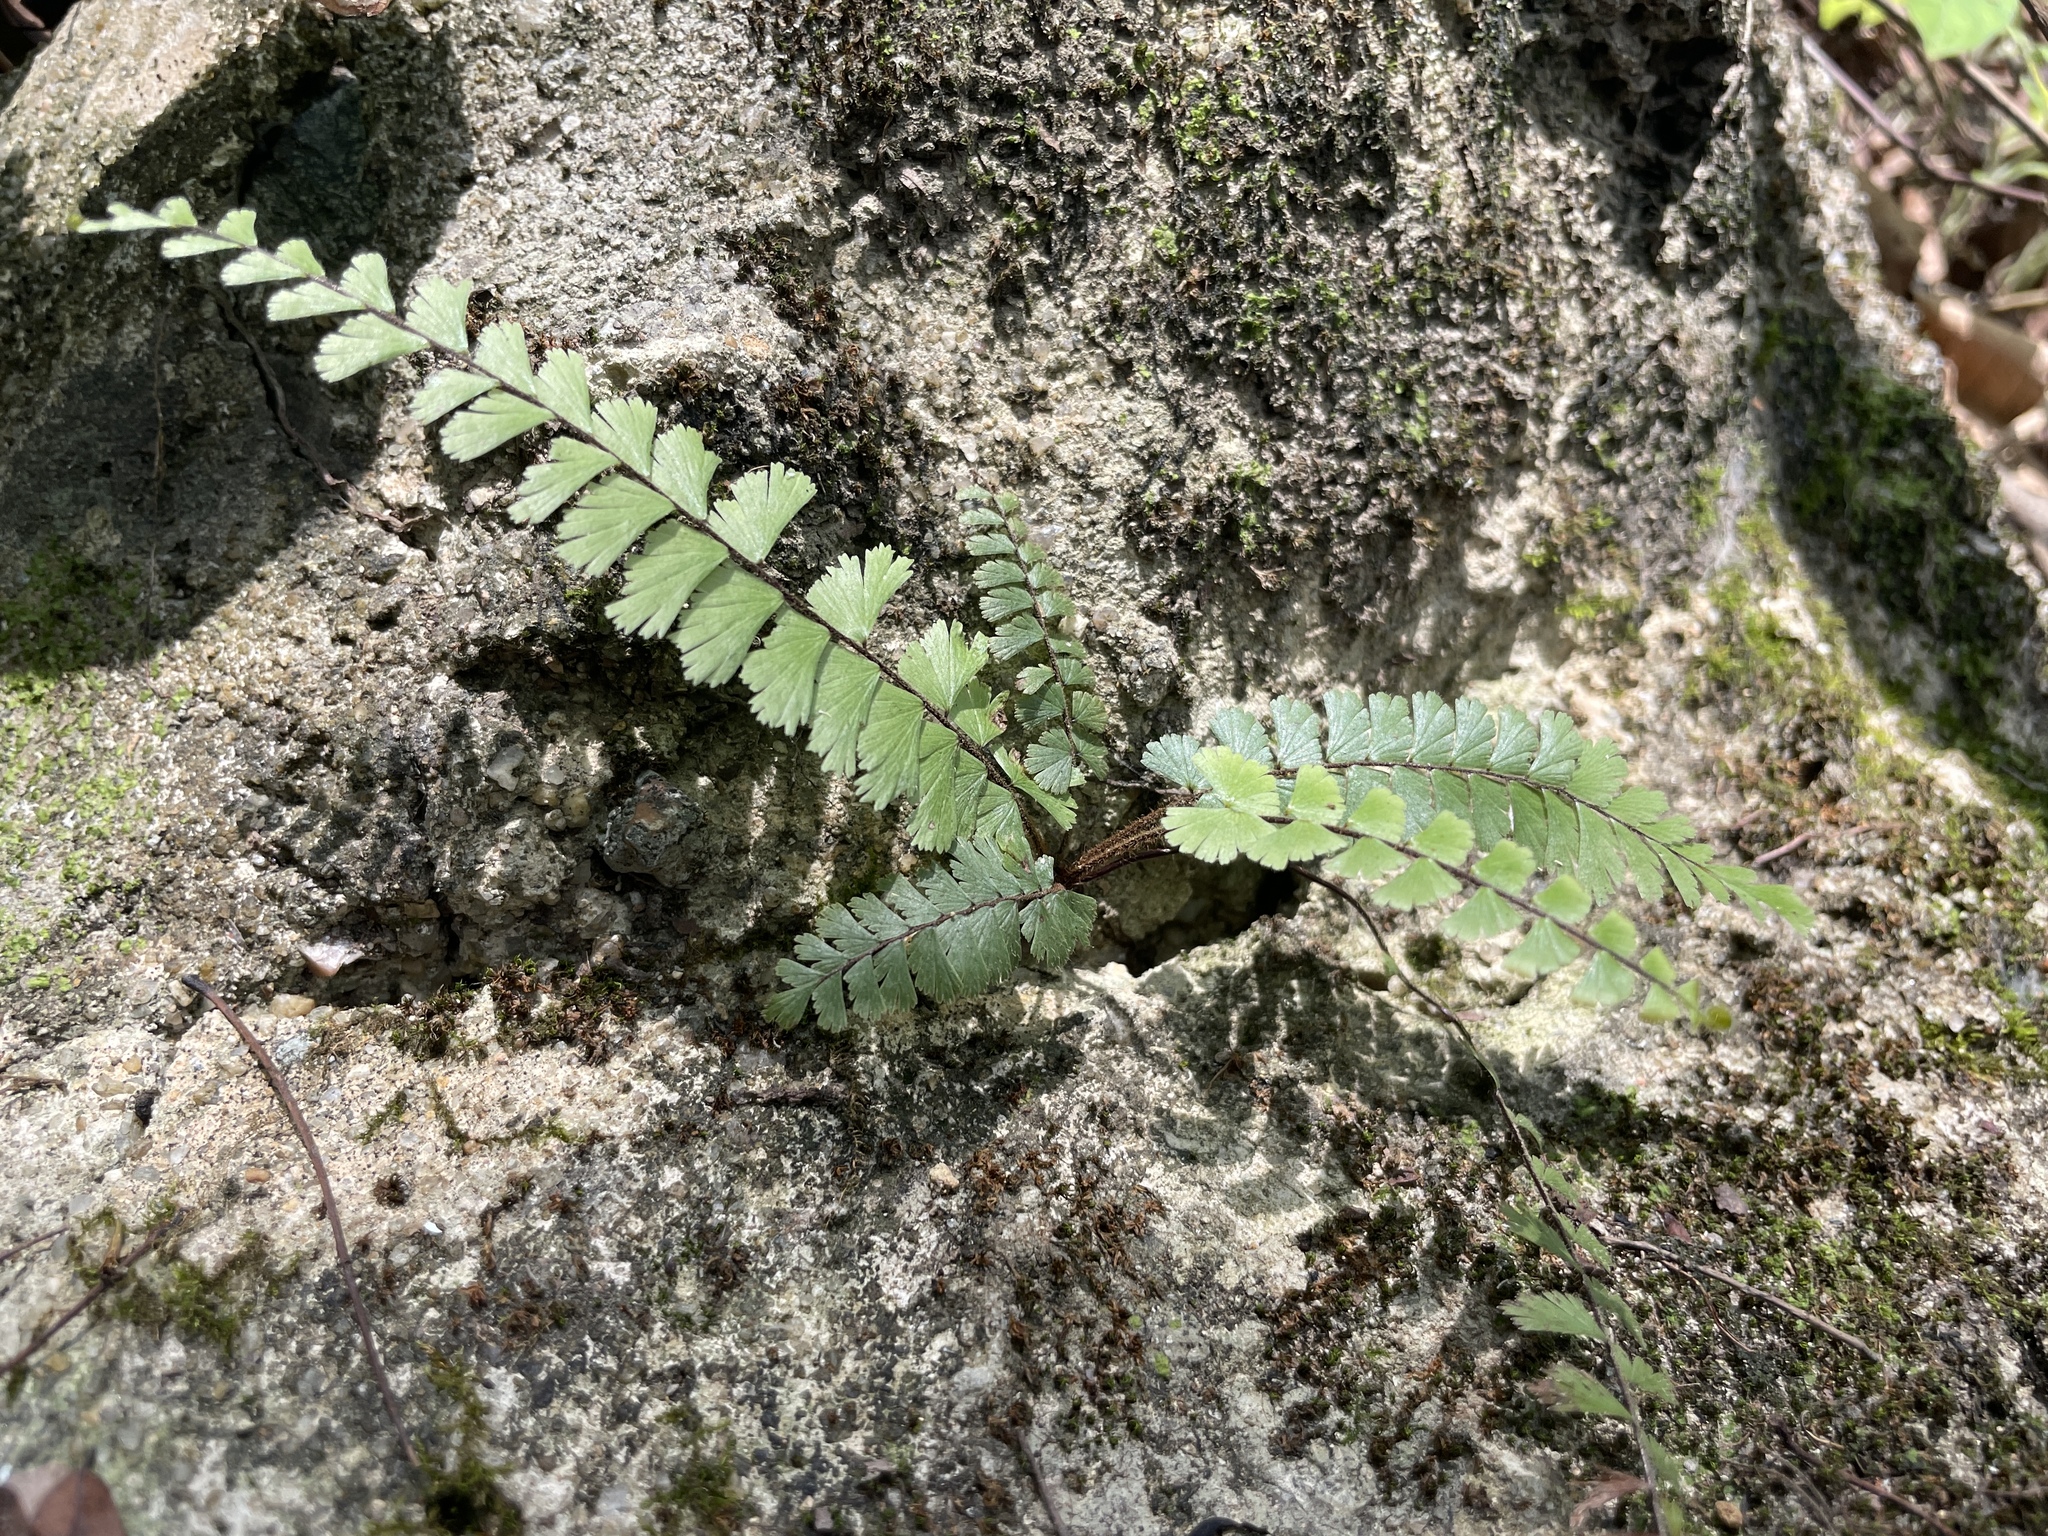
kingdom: Plantae
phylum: Tracheophyta
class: Polypodiopsida
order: Polypodiales
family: Pteridaceae
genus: Adiantum
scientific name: Adiantum ciliatum
